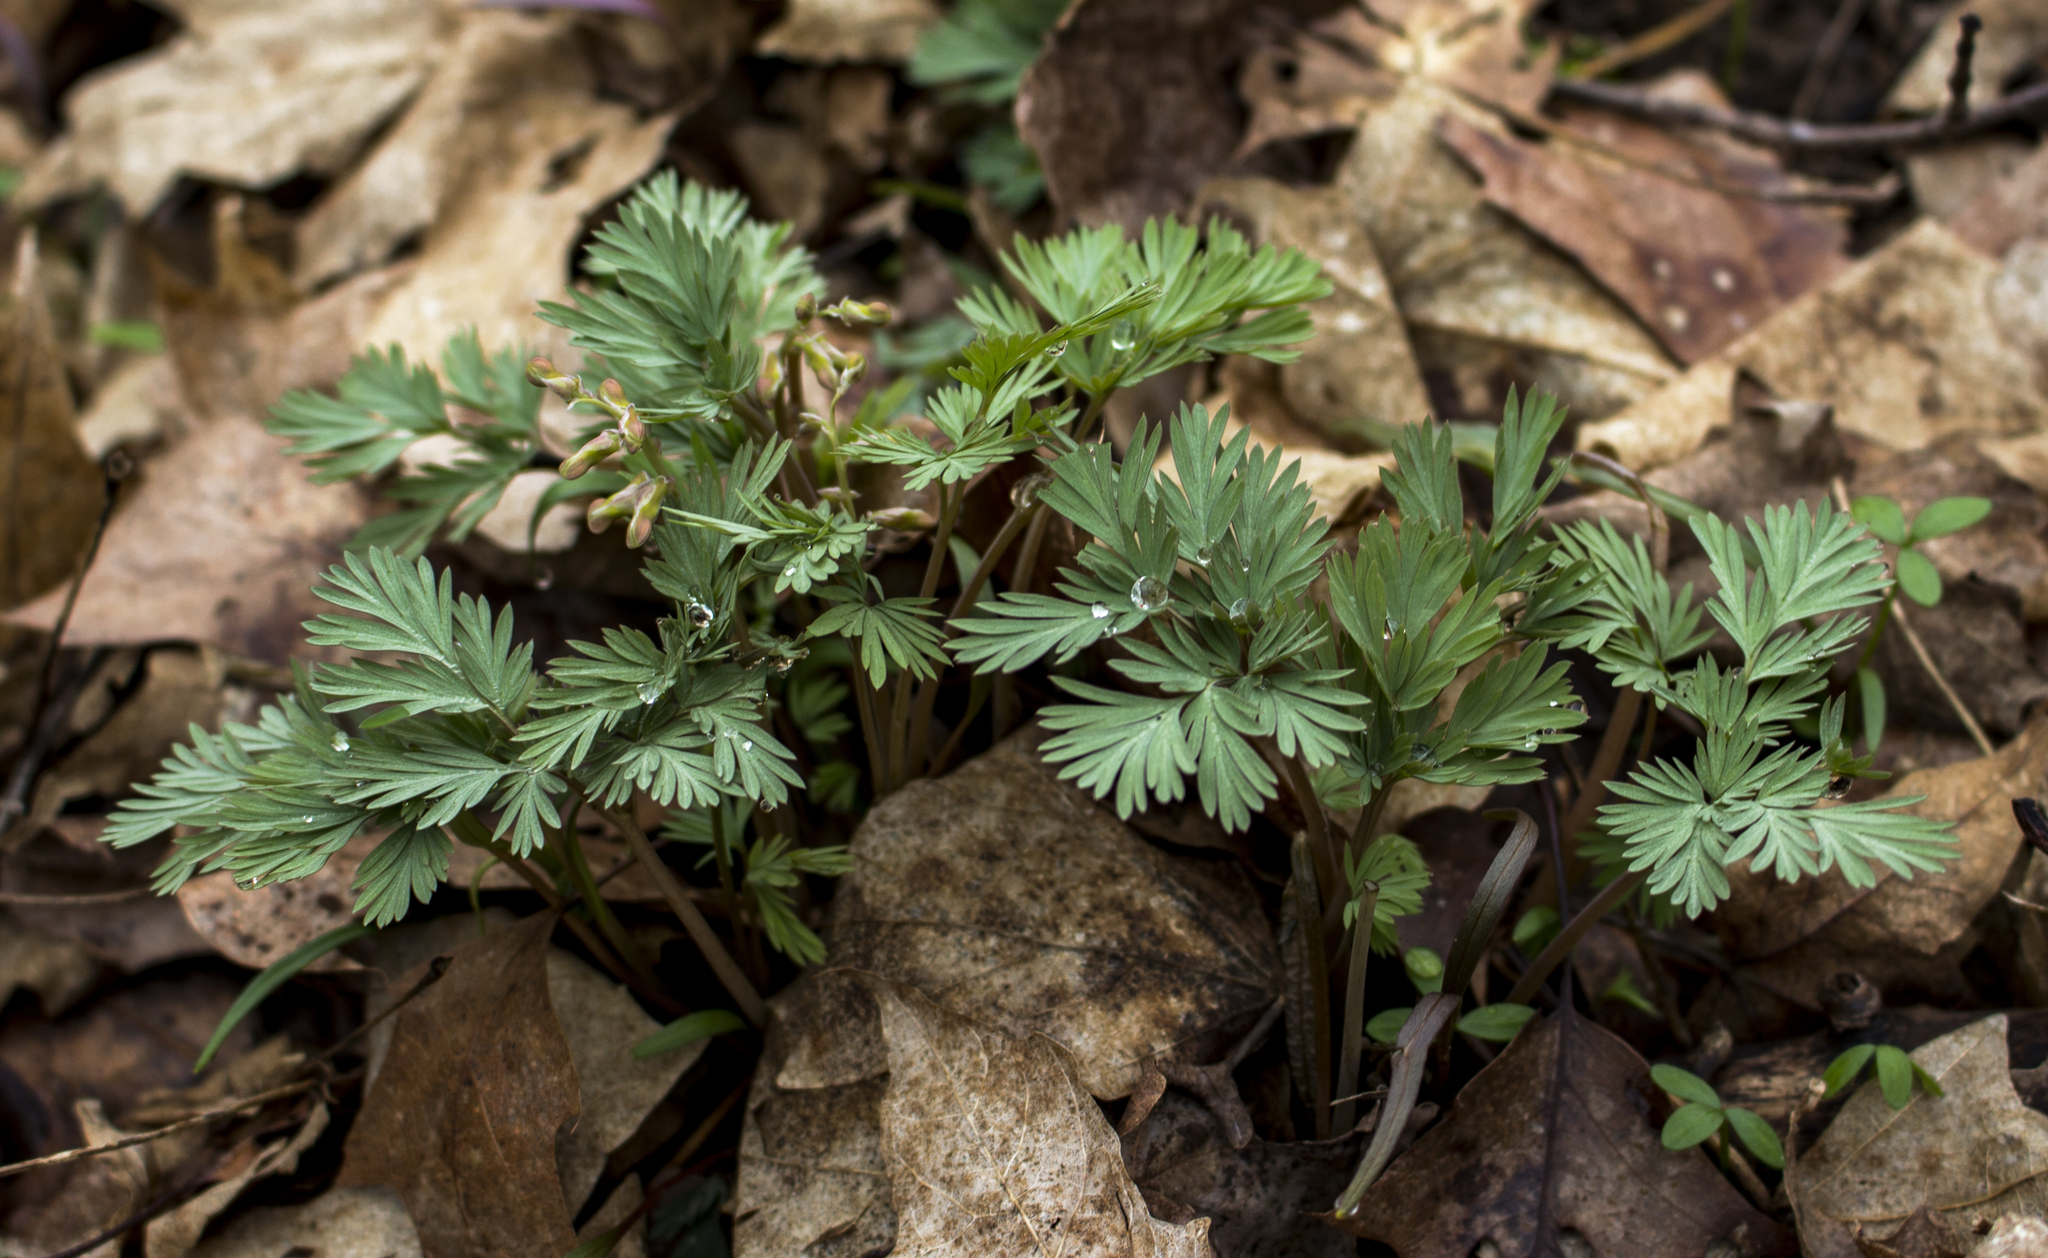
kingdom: Plantae
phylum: Tracheophyta
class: Magnoliopsida
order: Ranunculales
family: Papaveraceae
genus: Dicentra
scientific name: Dicentra cucullaria
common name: Dutchman's breeches
